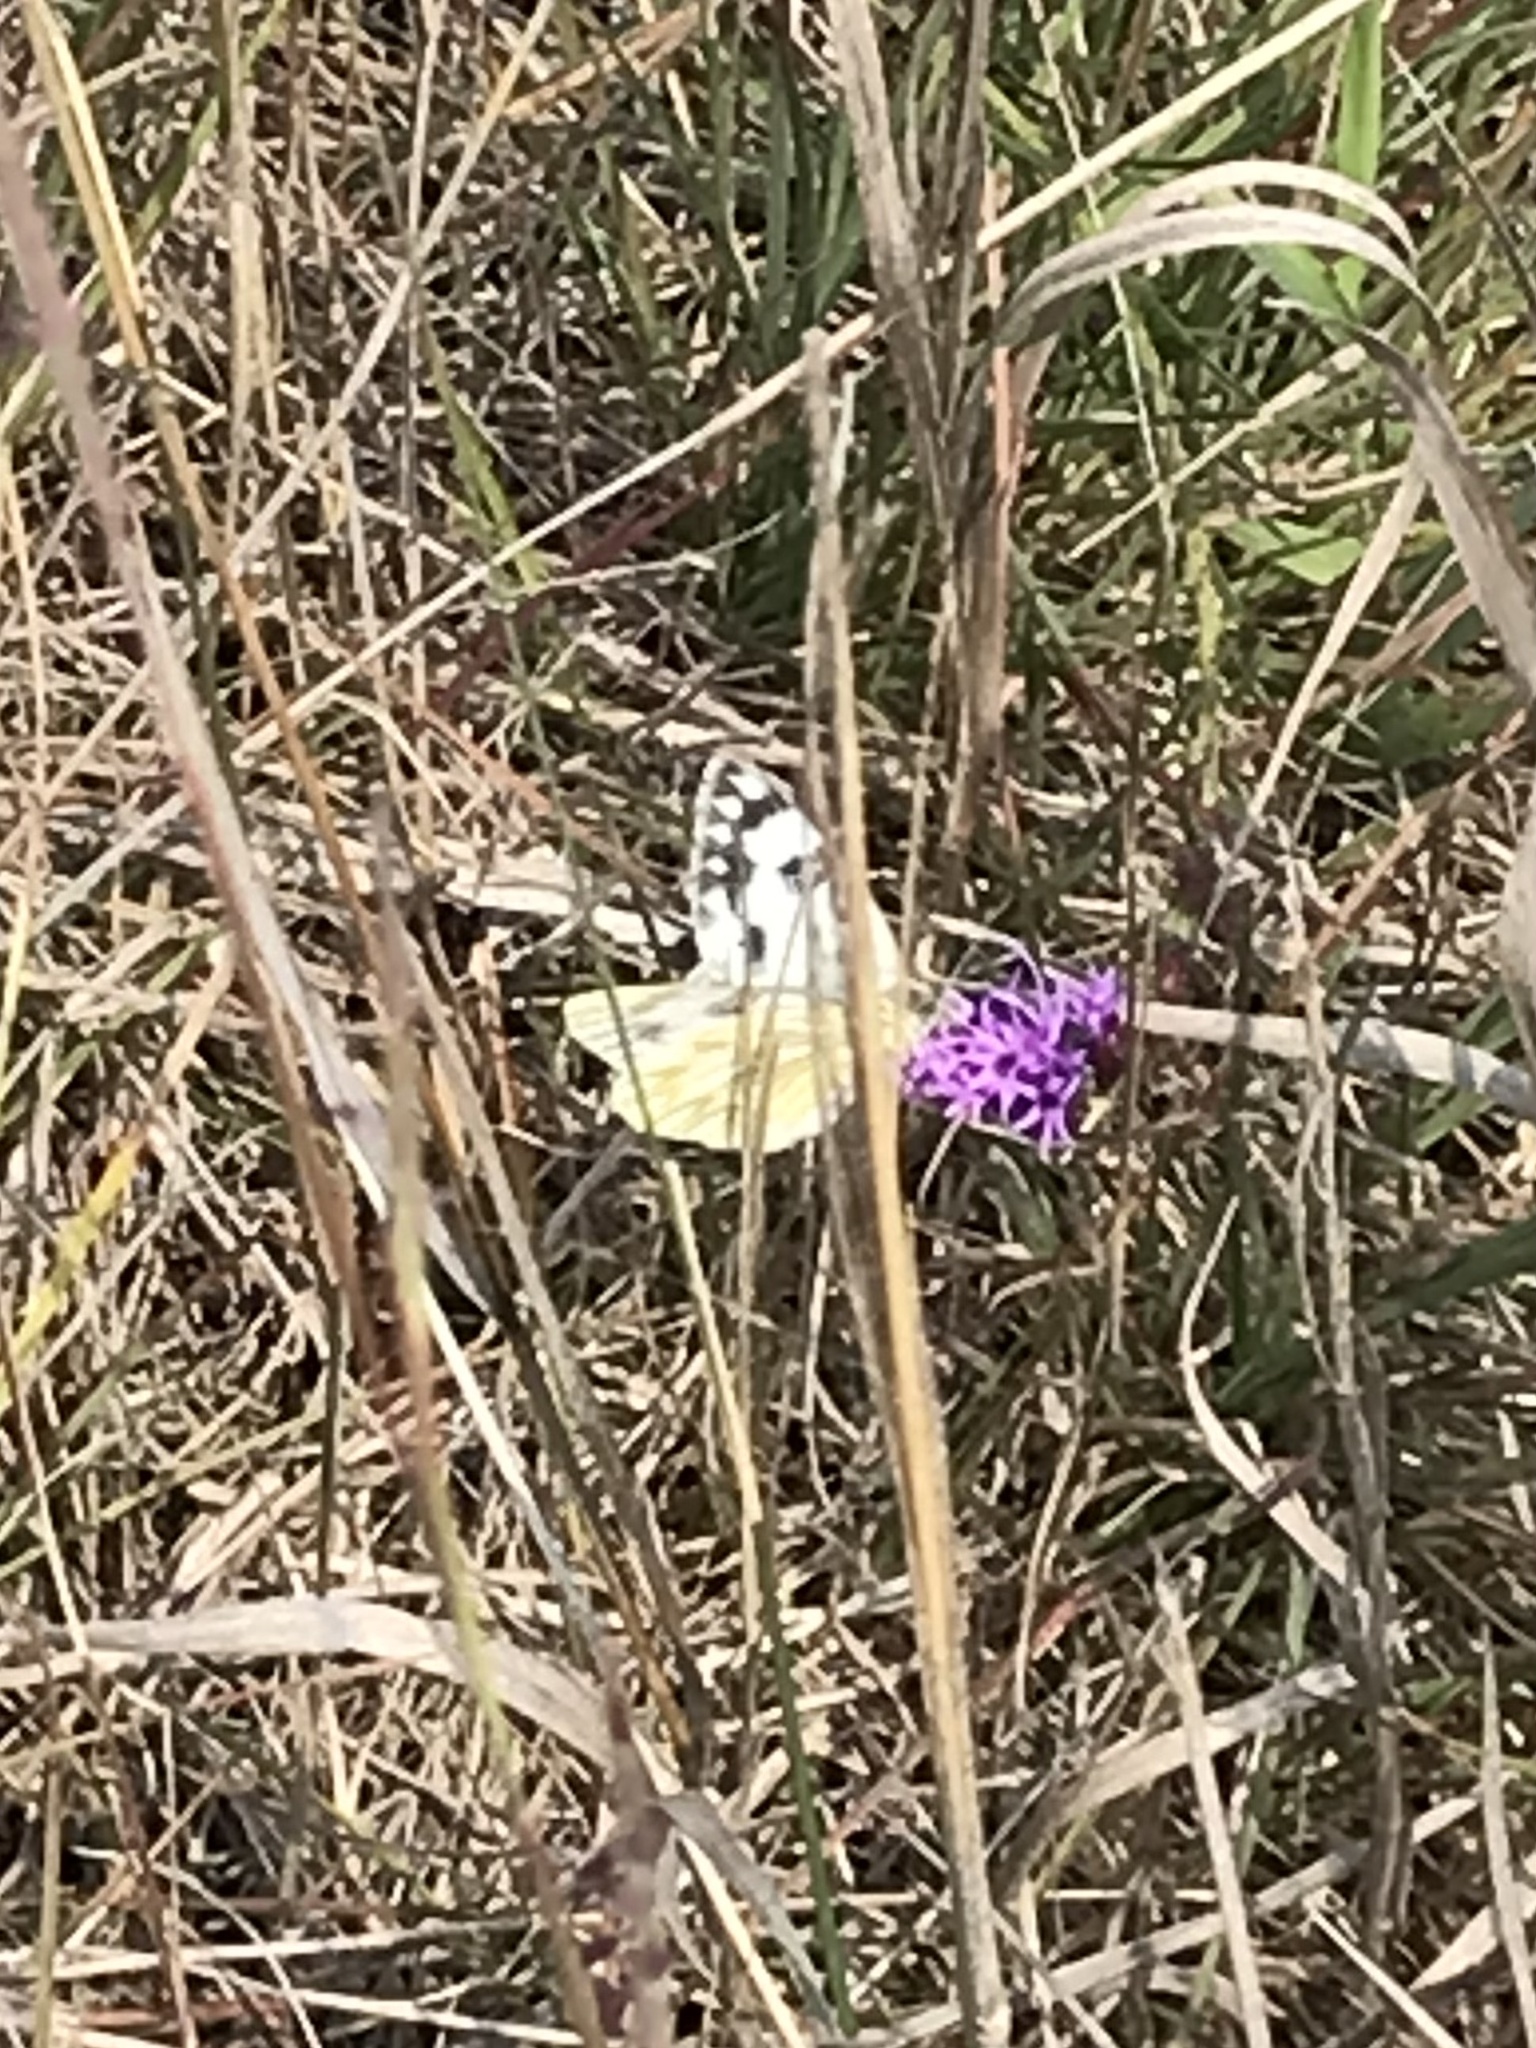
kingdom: Animalia
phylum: Arthropoda
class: Insecta
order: Lepidoptera
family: Pieridae
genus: Pontia
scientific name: Pontia occidentalis
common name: Western white
